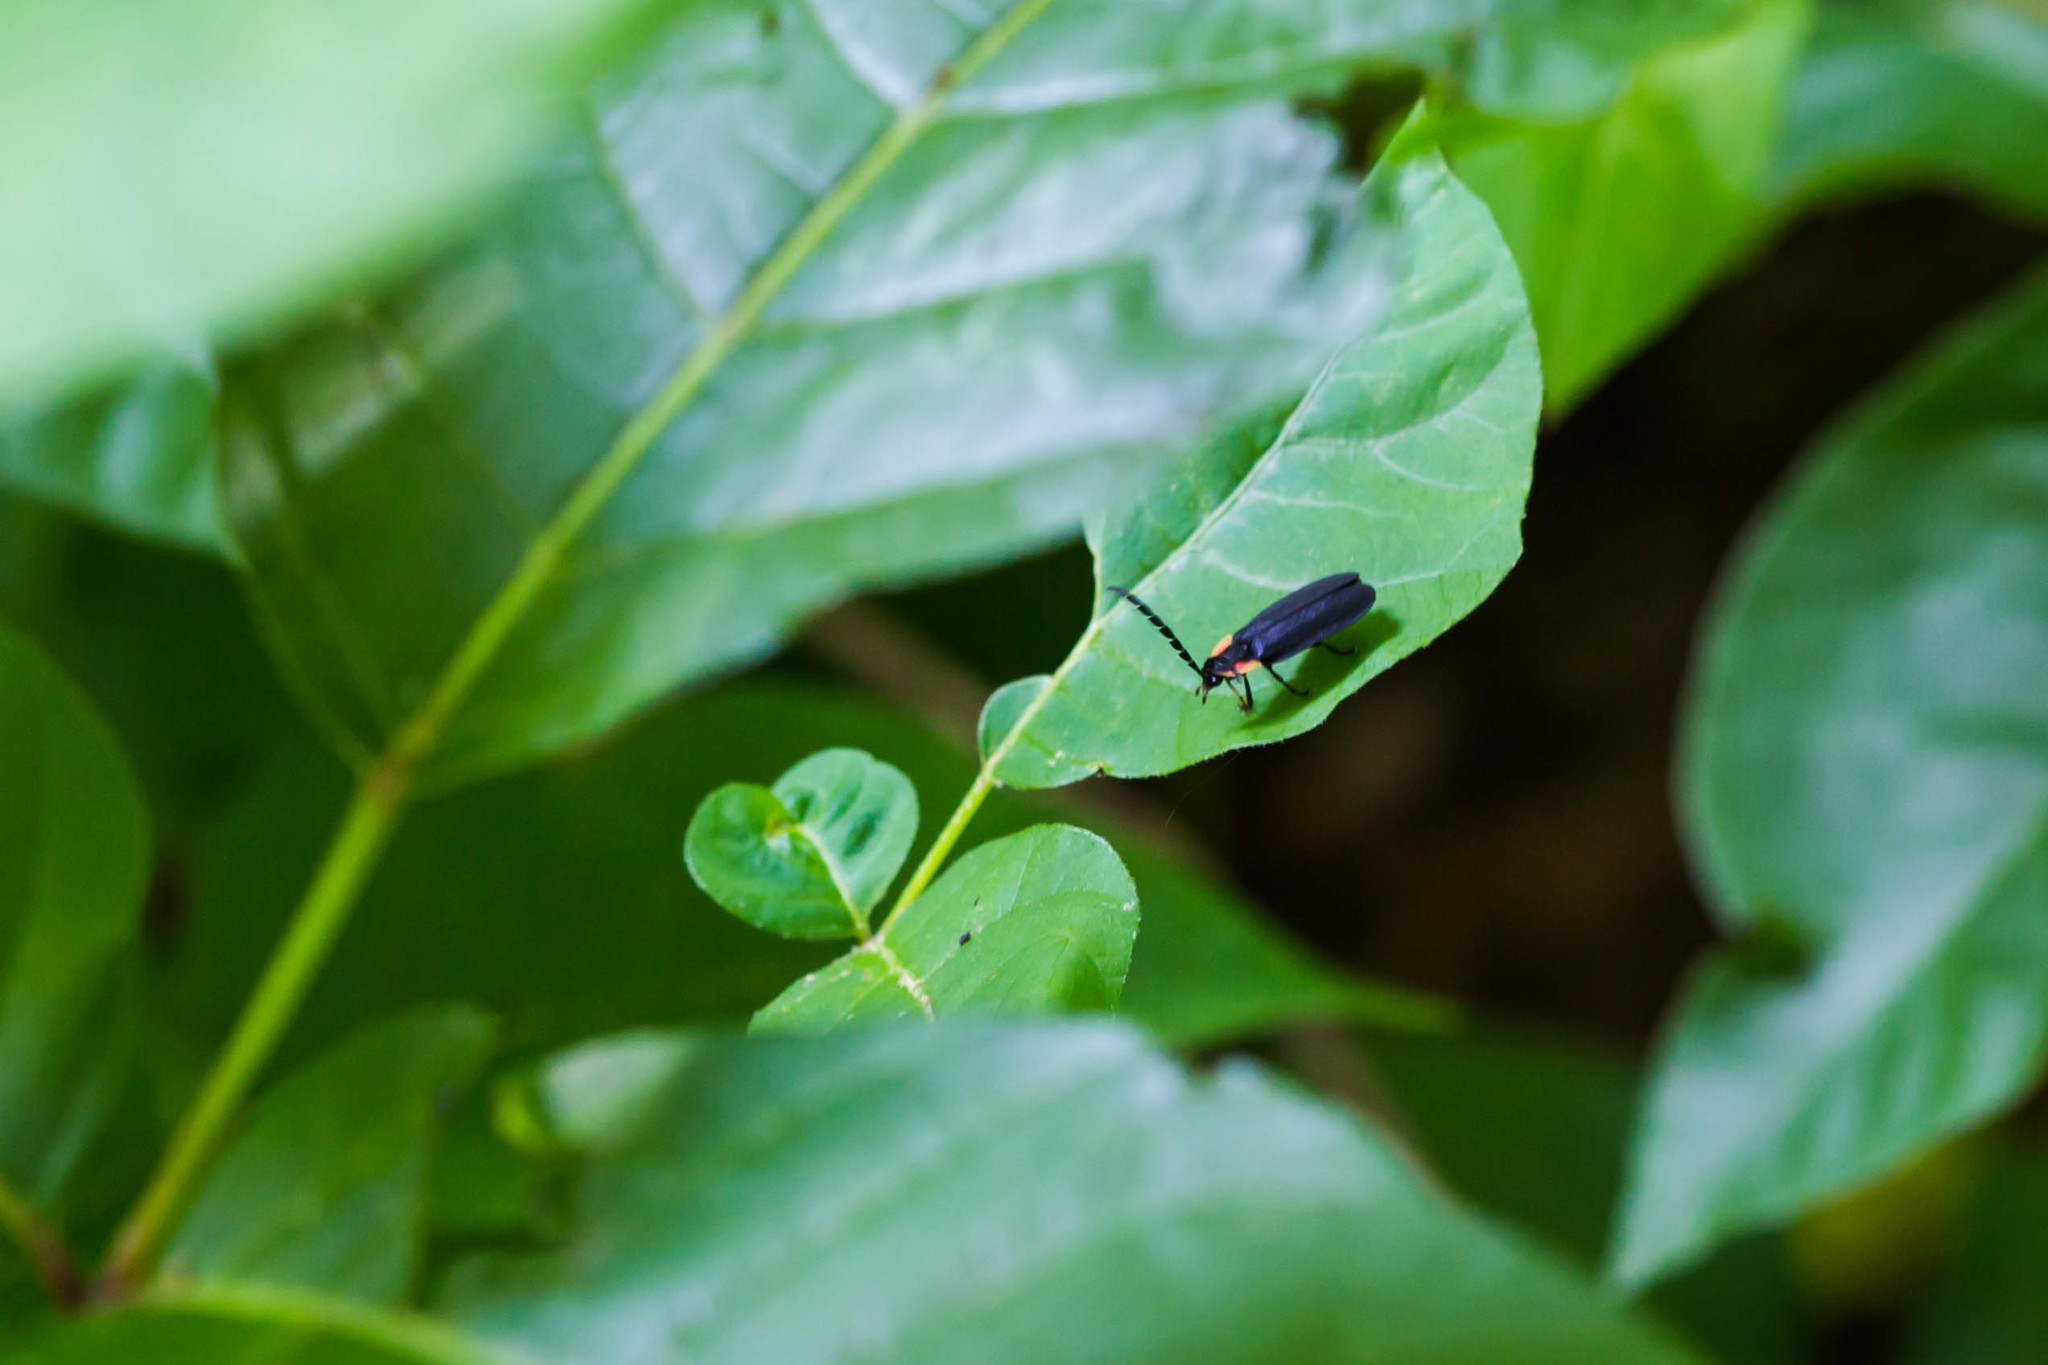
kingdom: Animalia
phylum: Arthropoda
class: Insecta
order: Coleoptera
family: Lampyridae
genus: Lucidota
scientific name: Lucidota atra
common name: Black firefly
